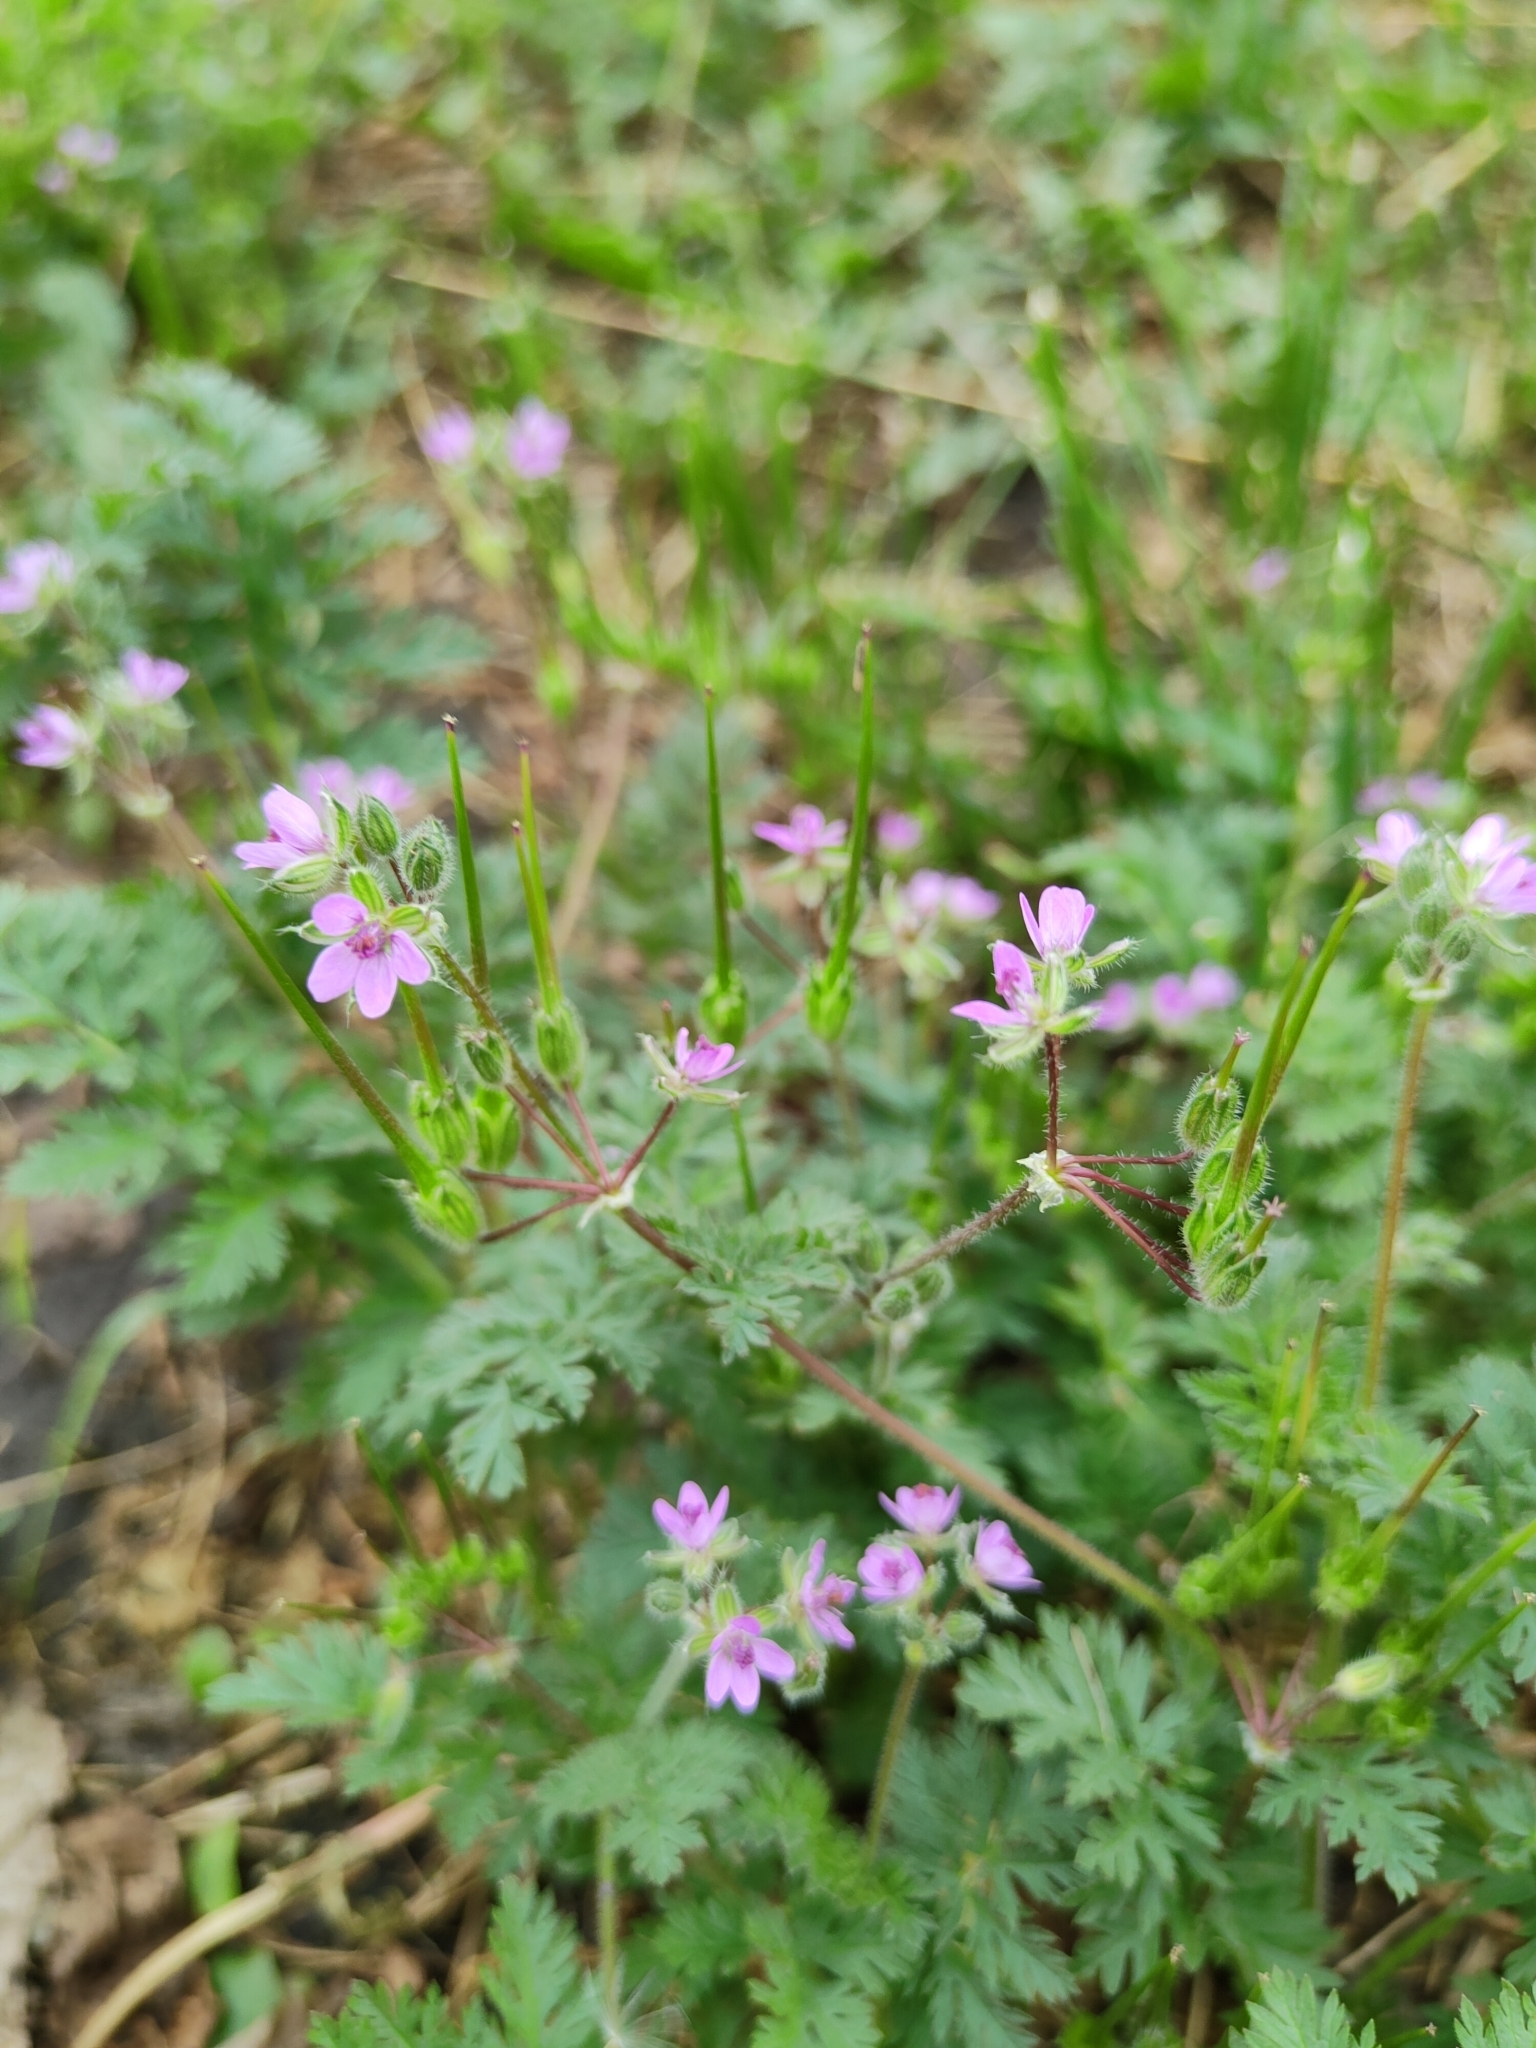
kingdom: Plantae
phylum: Tracheophyta
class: Magnoliopsida
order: Geraniales
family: Geraniaceae
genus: Erodium
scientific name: Erodium cicutarium
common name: Common stork's-bill
